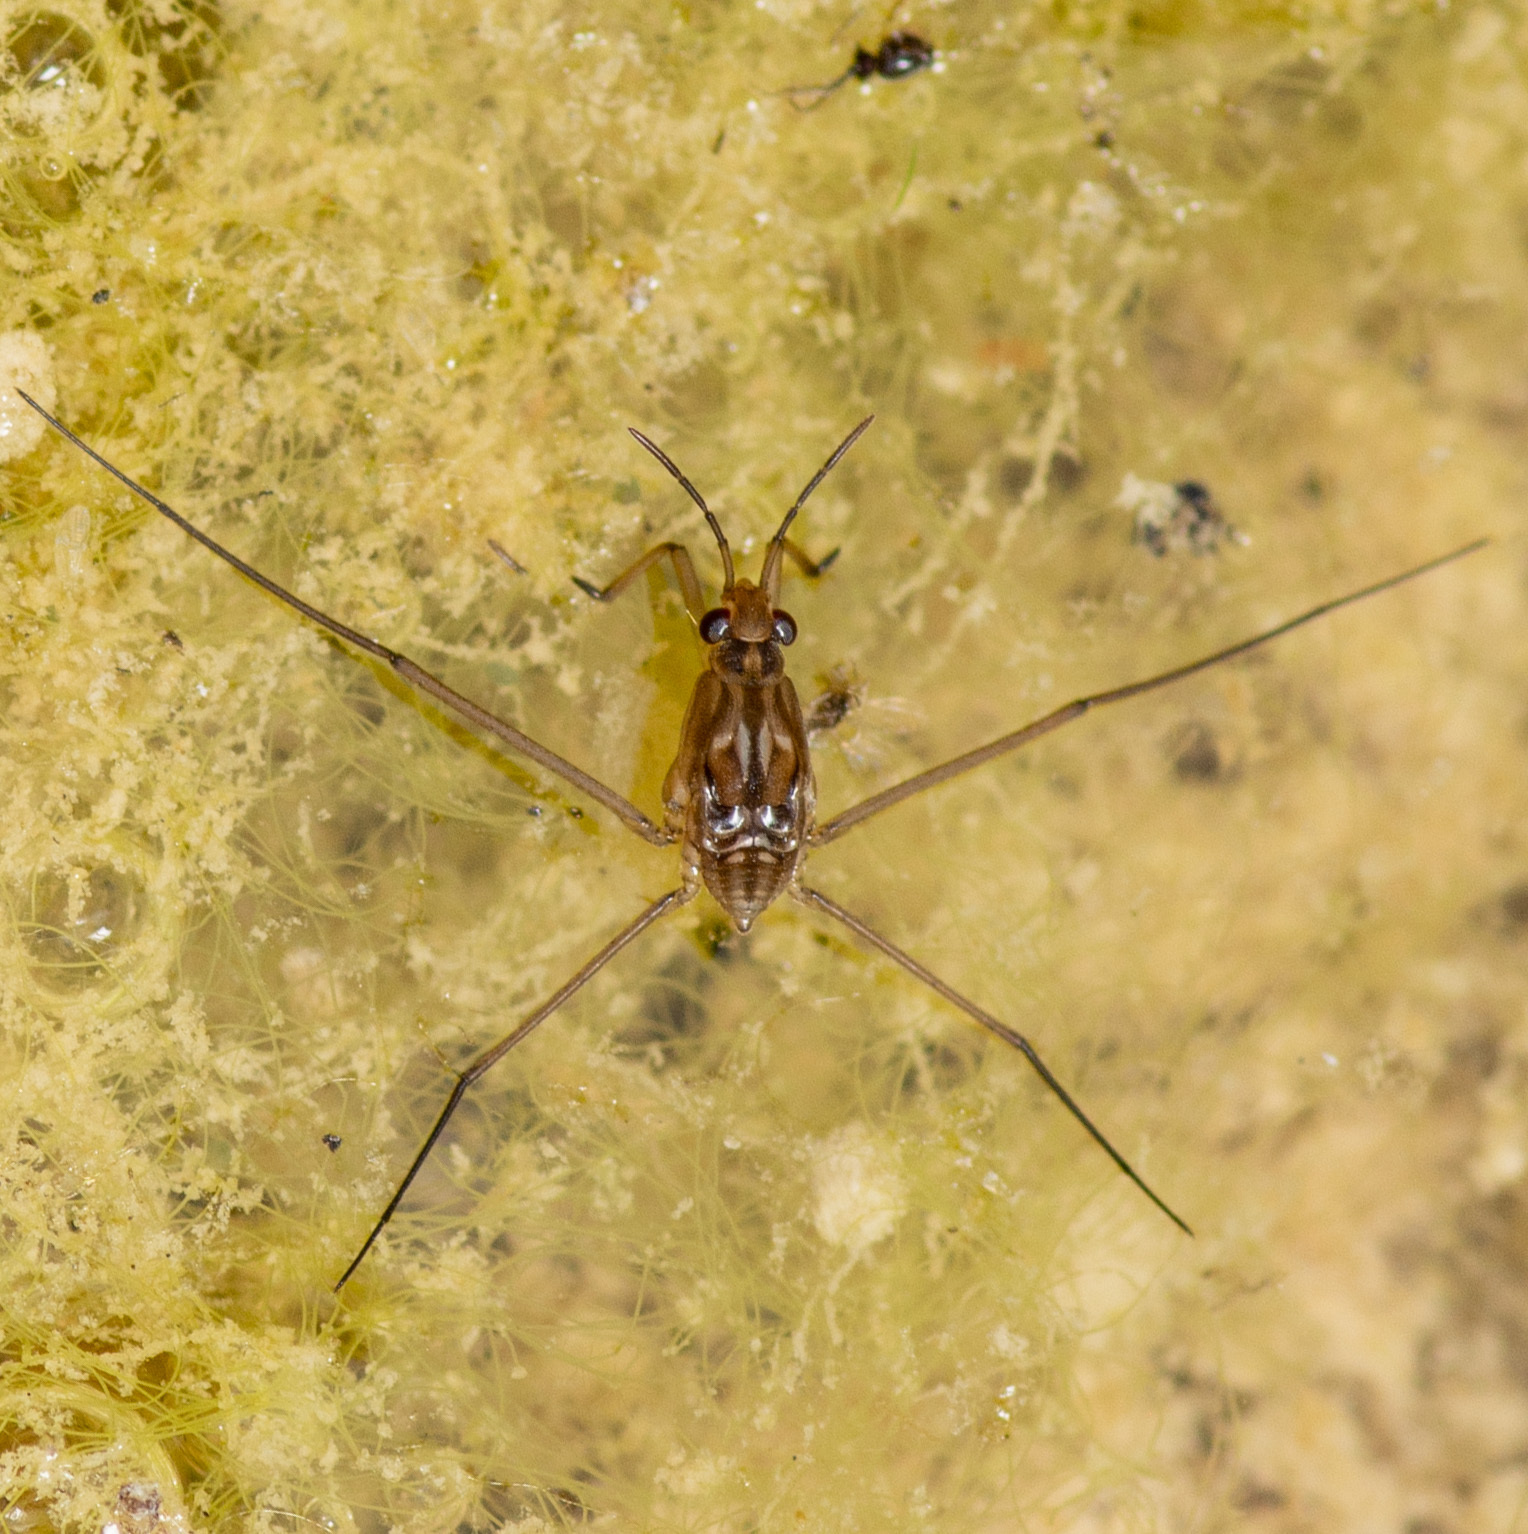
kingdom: Animalia
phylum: Arthropoda
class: Insecta
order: Hemiptera
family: Gerridae
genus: Aquarius
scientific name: Aquarius remigis
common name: Common water strider
